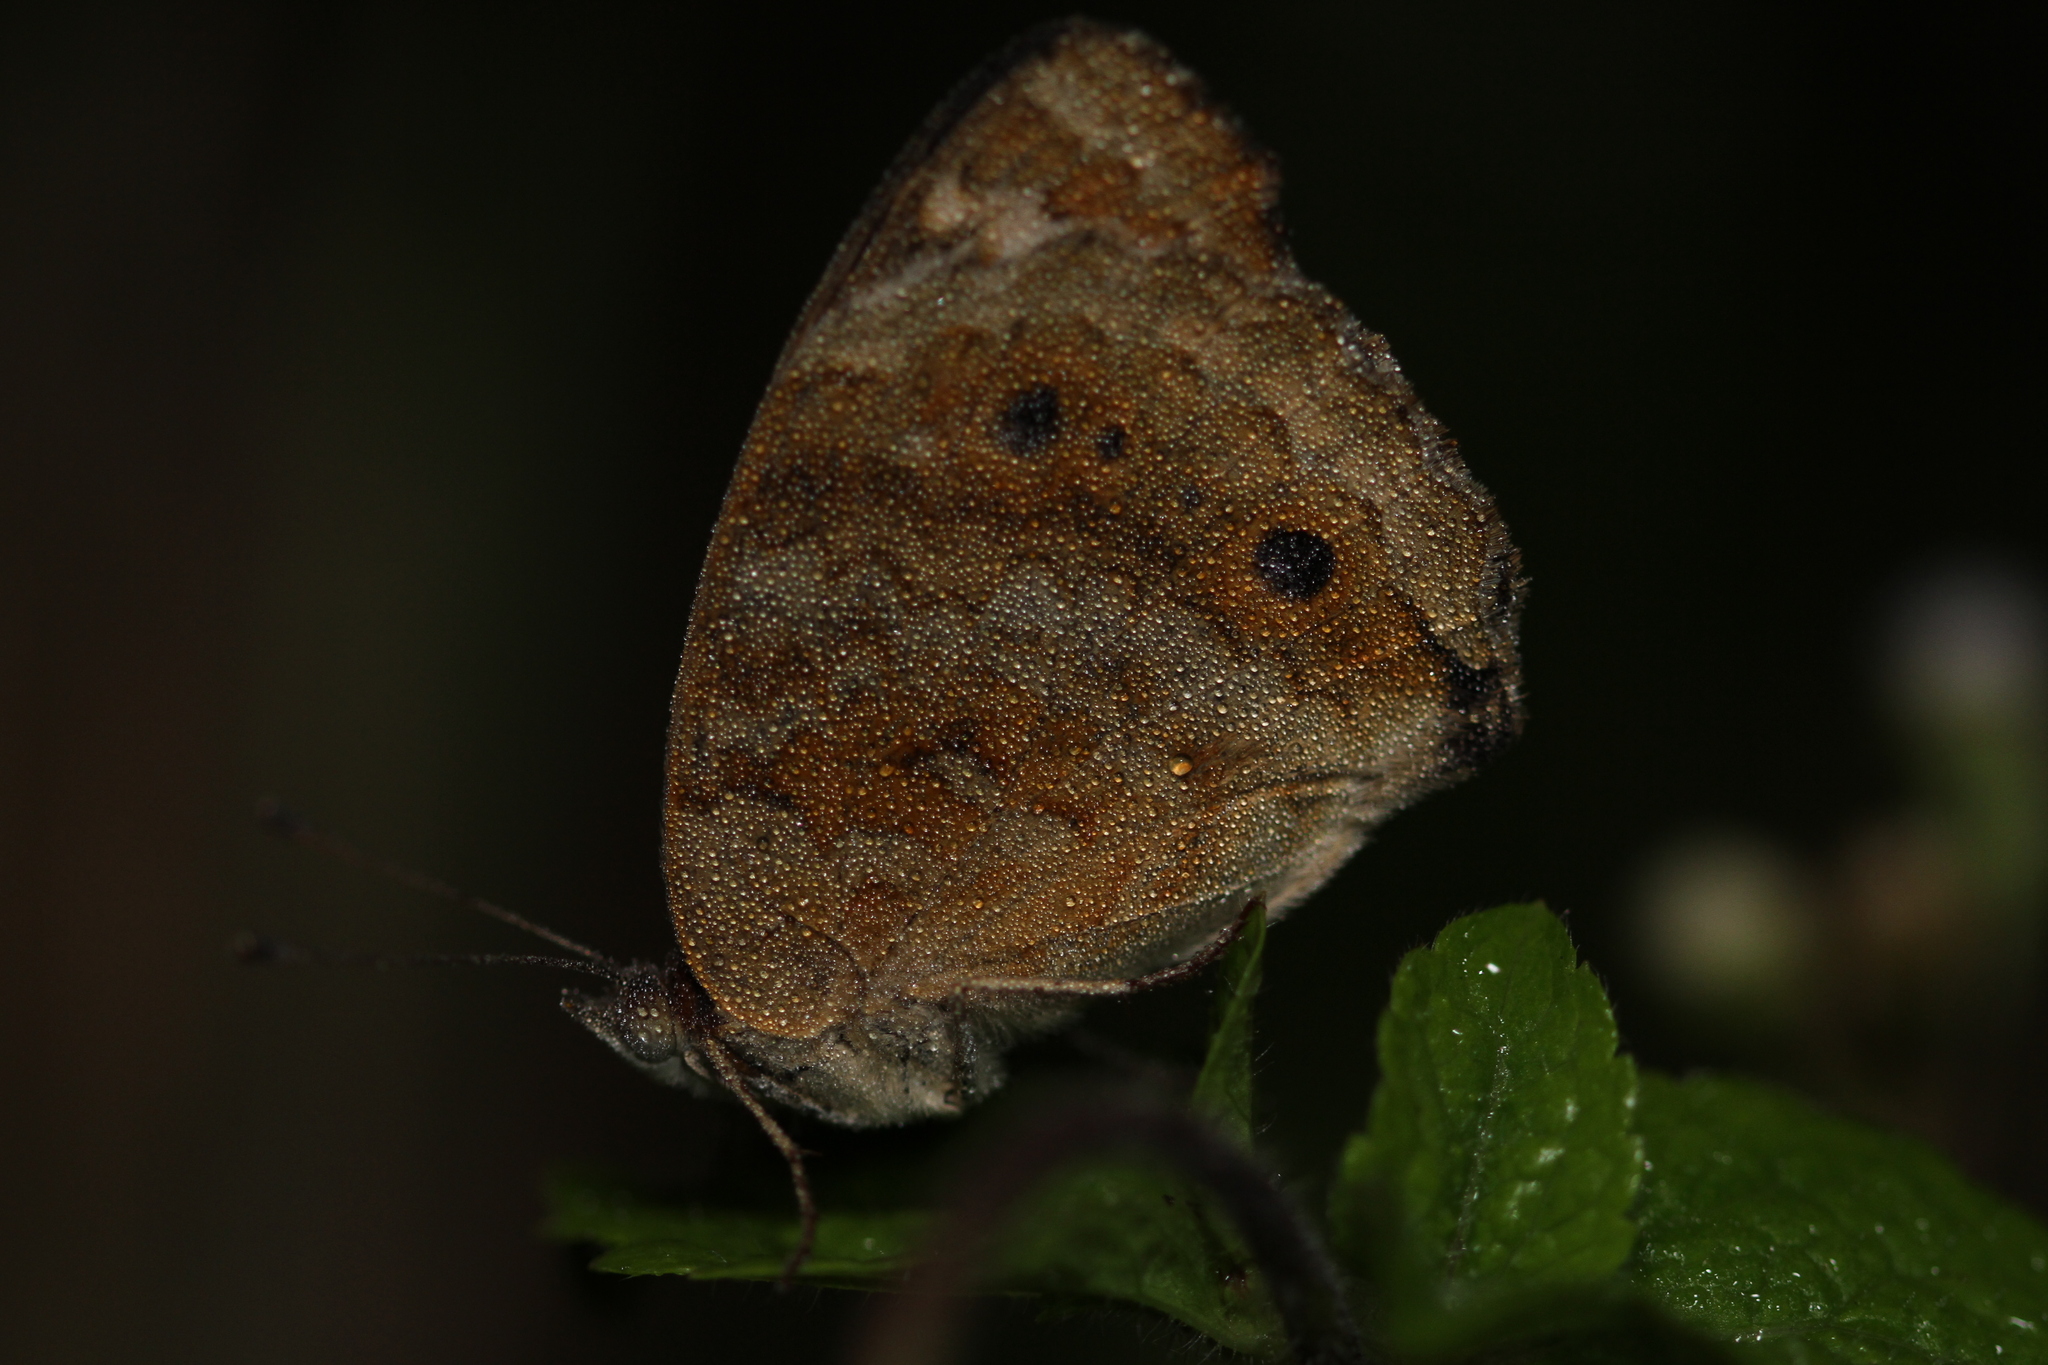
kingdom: Animalia
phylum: Arthropoda
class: Insecta
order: Lepidoptera
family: Nymphalidae
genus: Junonia
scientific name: Junonia orithya
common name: Blue pansy
